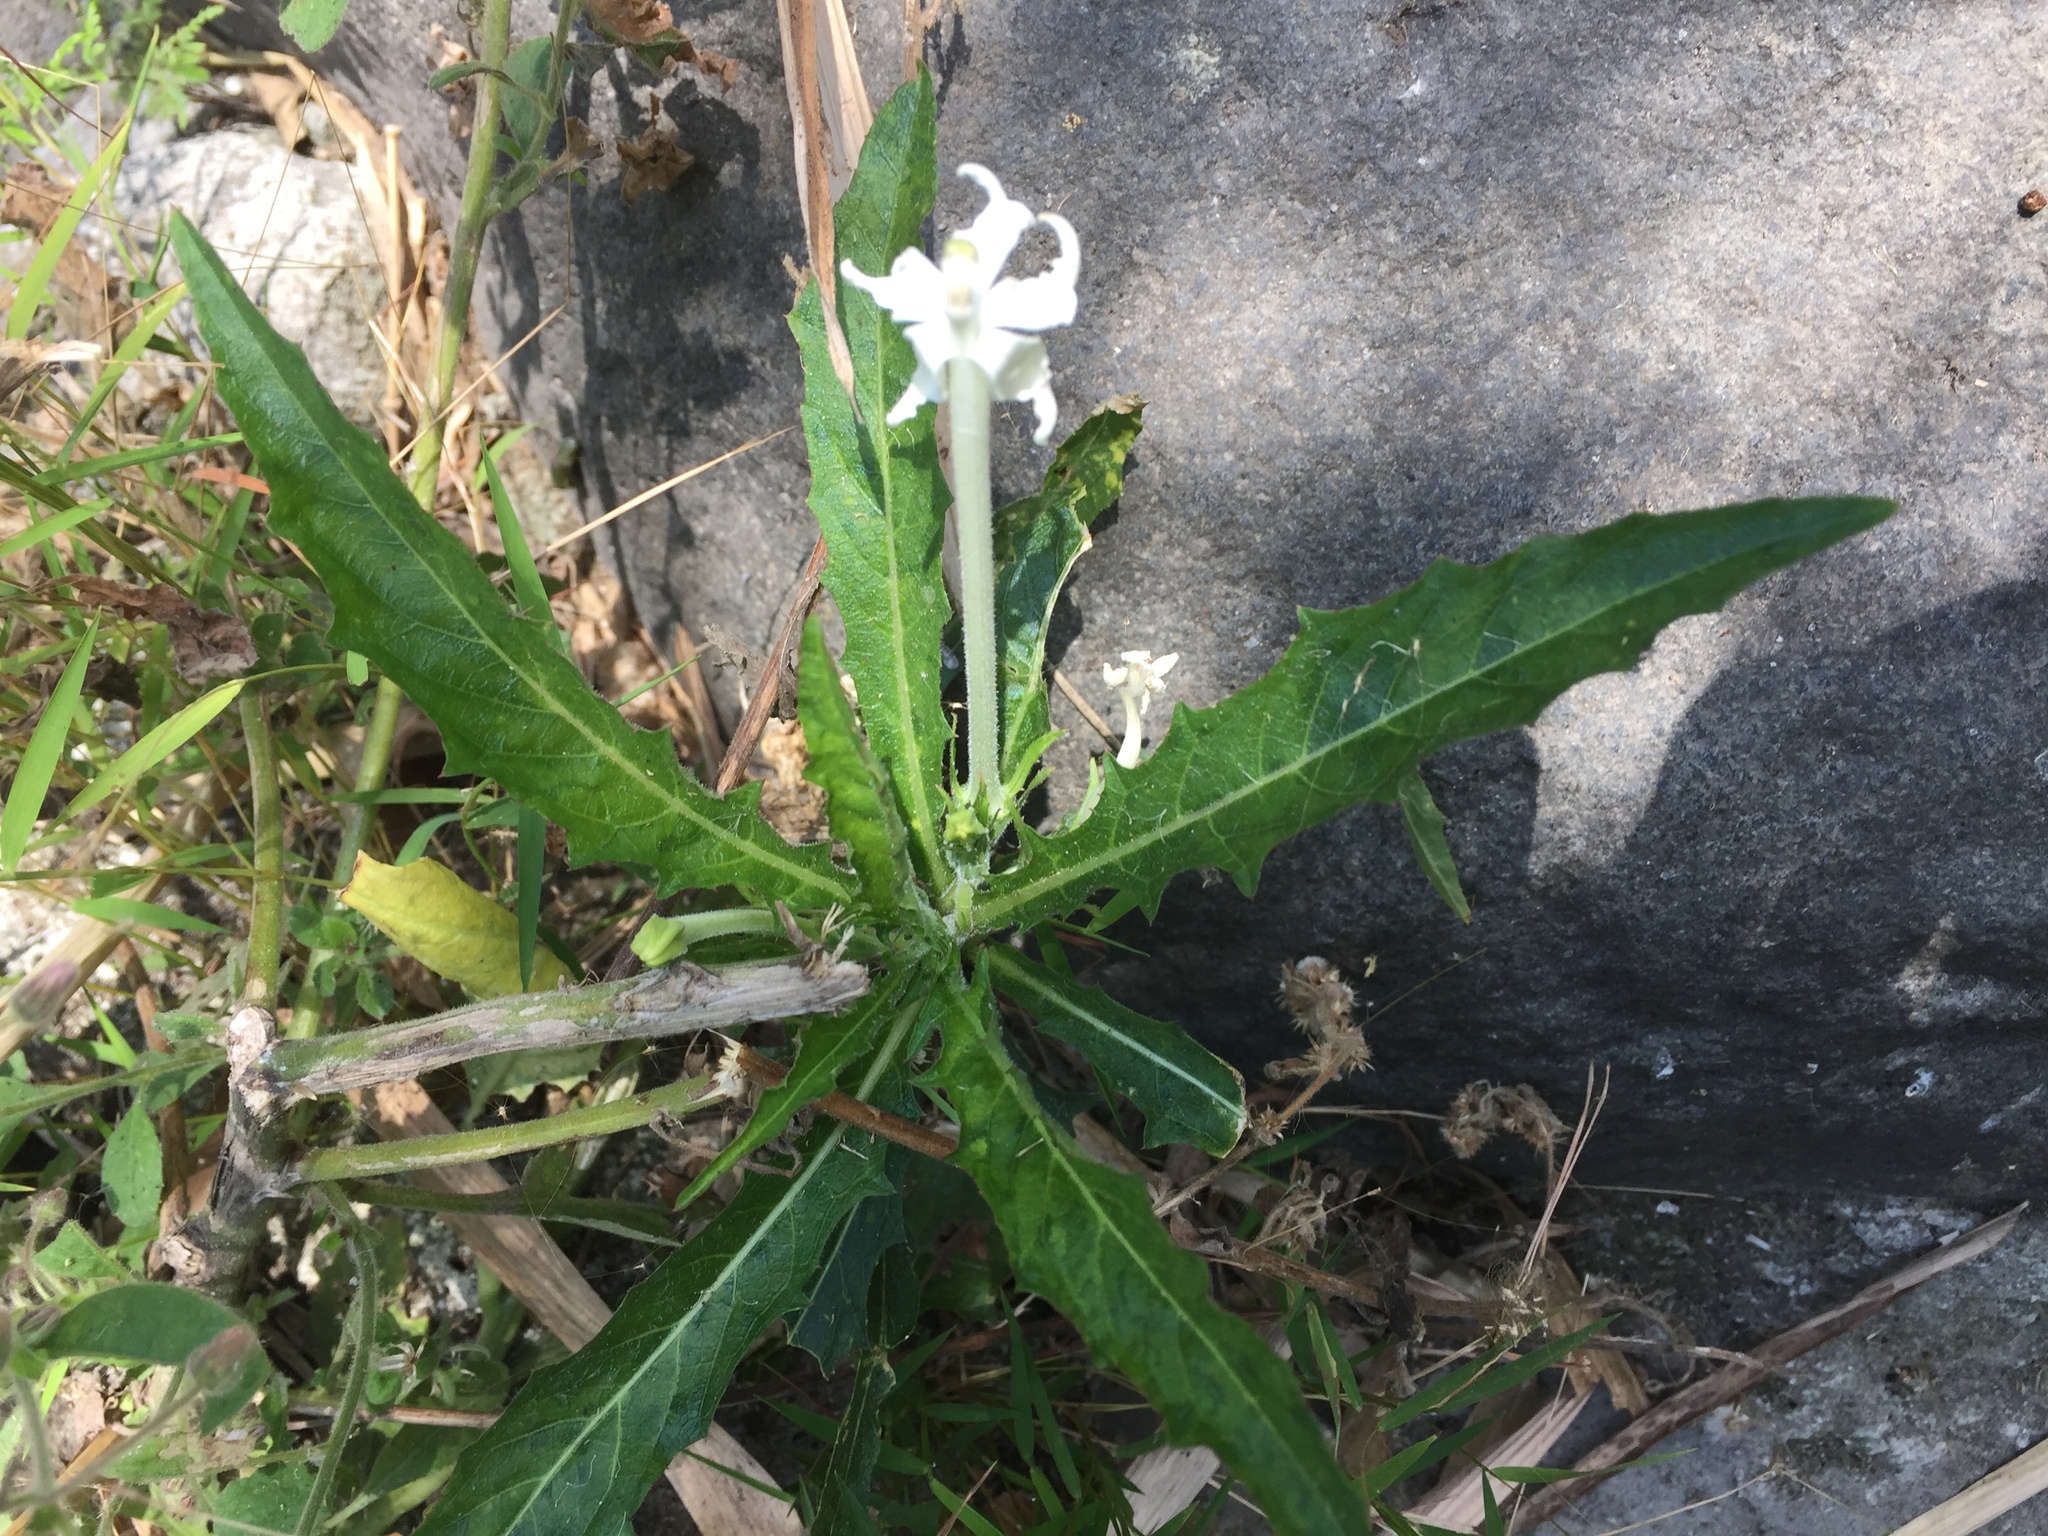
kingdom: Plantae
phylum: Tracheophyta
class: Magnoliopsida
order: Asterales
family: Campanulaceae
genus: Hippobroma
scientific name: Hippobroma longiflora
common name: Madamfate
